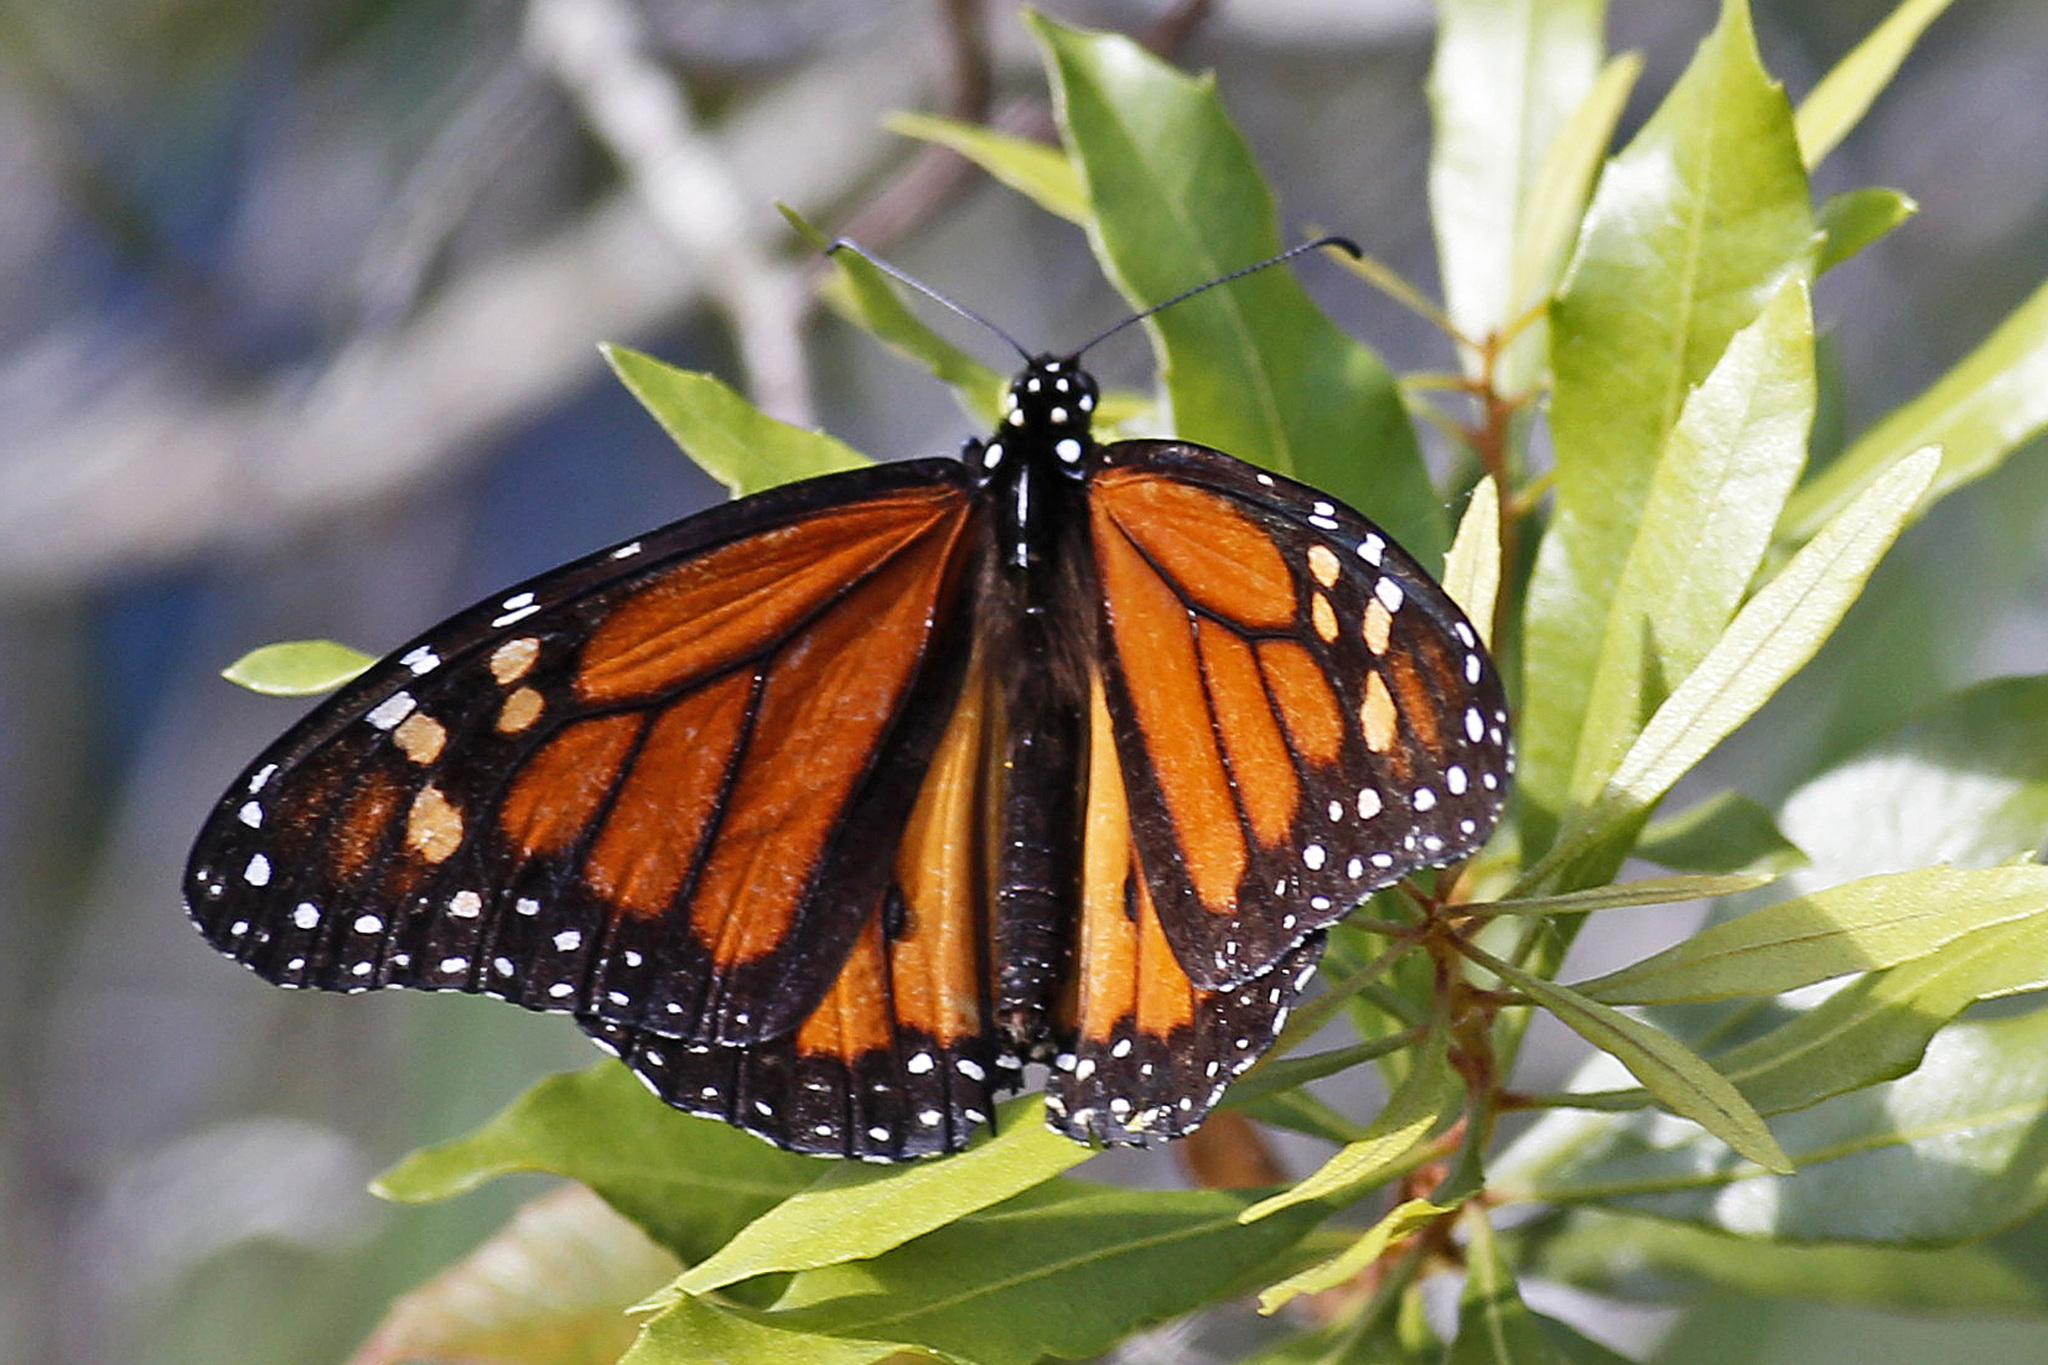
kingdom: Animalia
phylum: Arthropoda
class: Insecta
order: Lepidoptera
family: Nymphalidae
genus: Danaus
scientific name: Danaus plexippus
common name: Monarch
